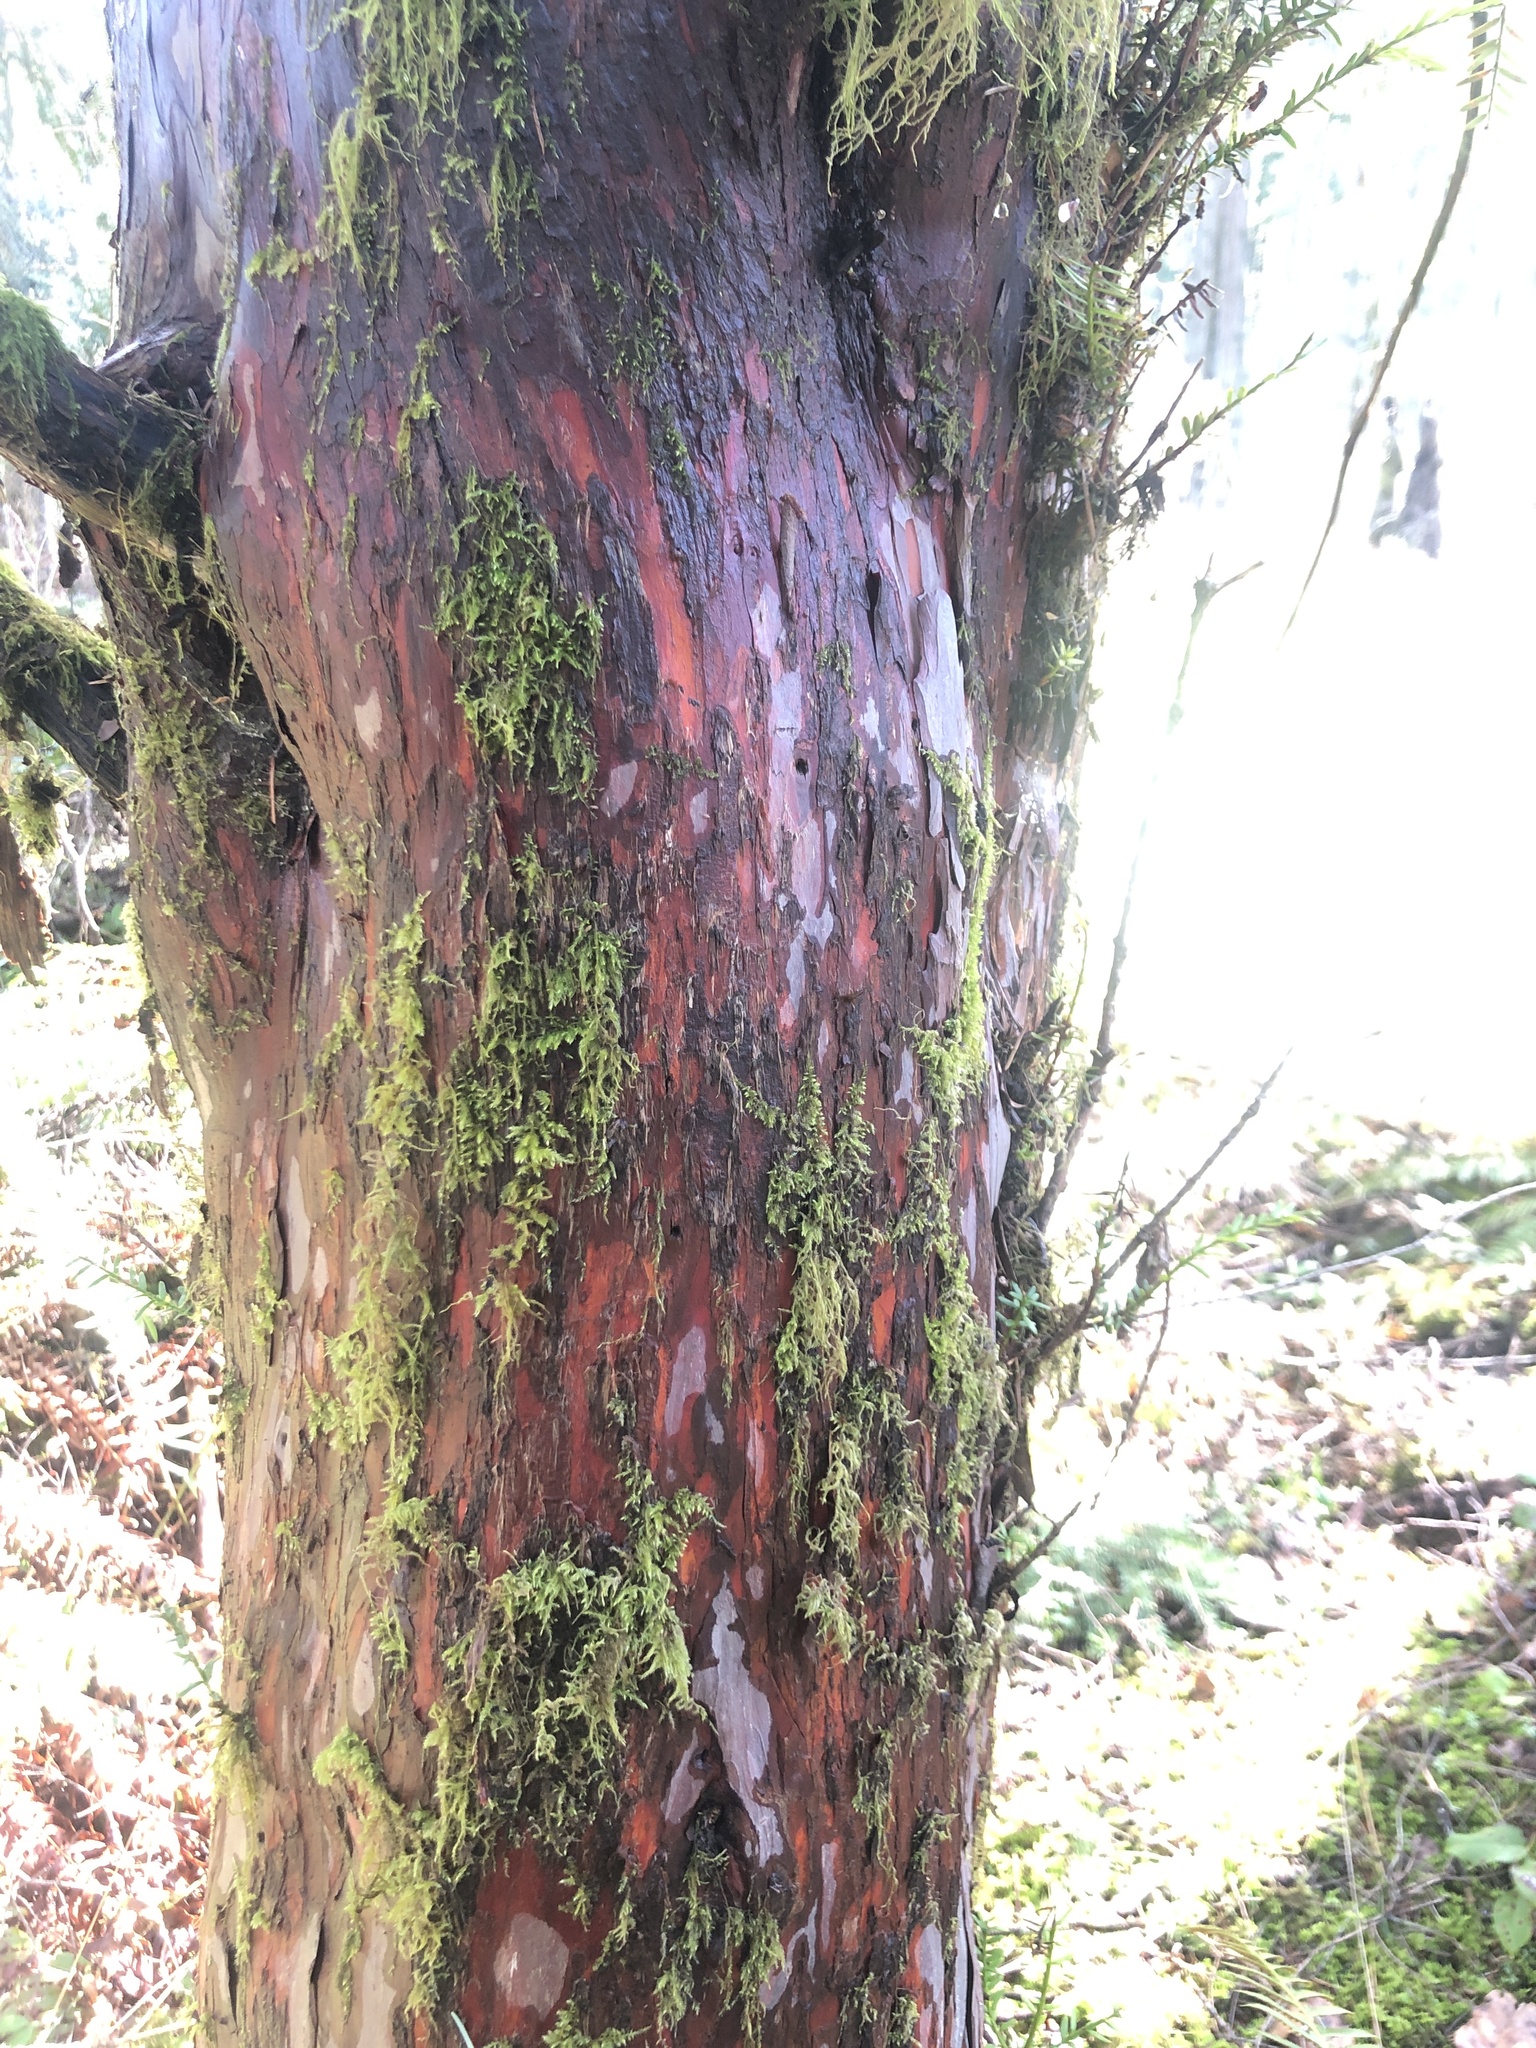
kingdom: Plantae
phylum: Tracheophyta
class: Pinopsida
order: Pinales
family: Taxaceae
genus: Taxus
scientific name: Taxus brevifolia
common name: Pacific yew
